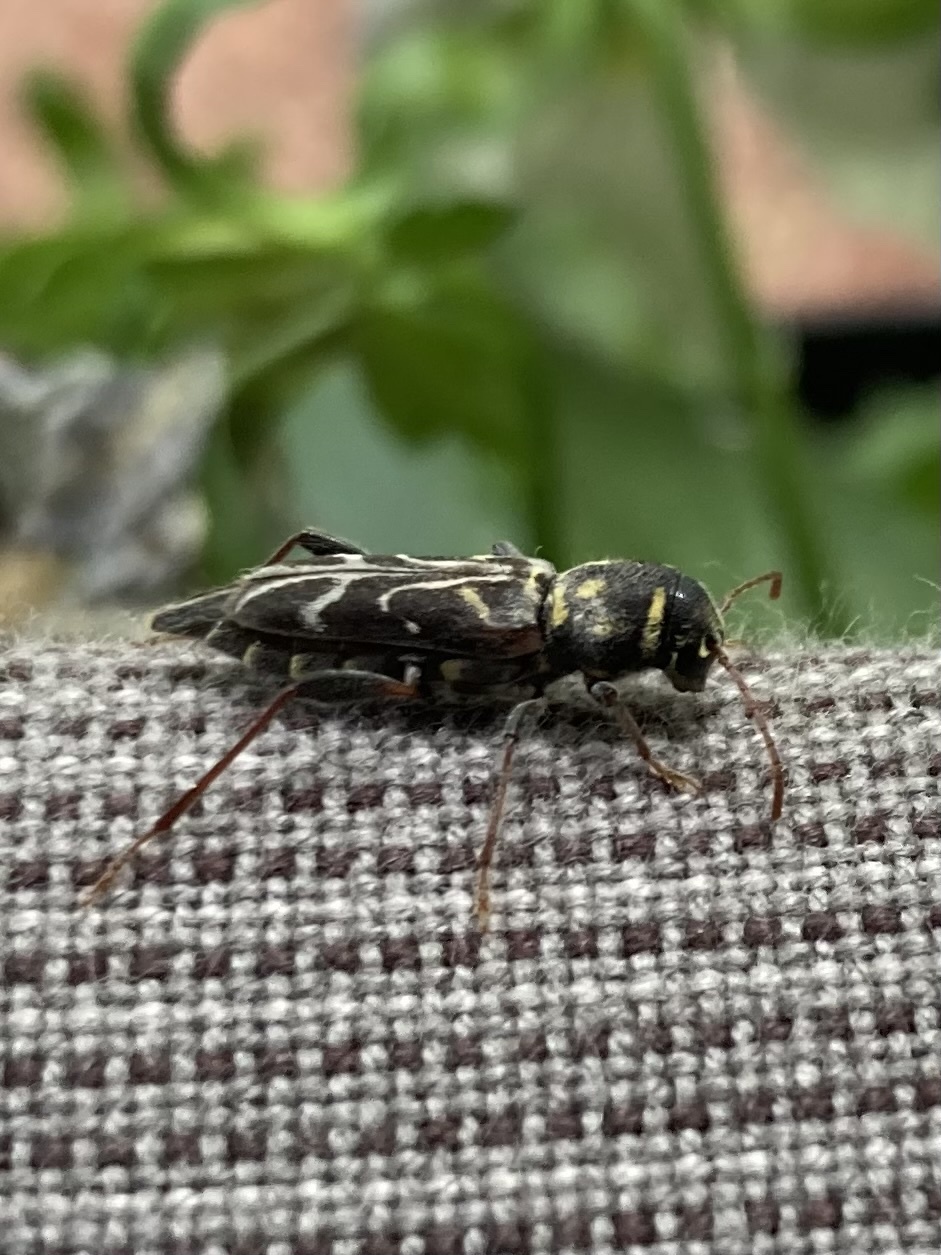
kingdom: Animalia
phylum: Arthropoda
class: Insecta
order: Coleoptera
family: Cerambycidae
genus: Xylotrechus
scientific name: Xylotrechus convergens
